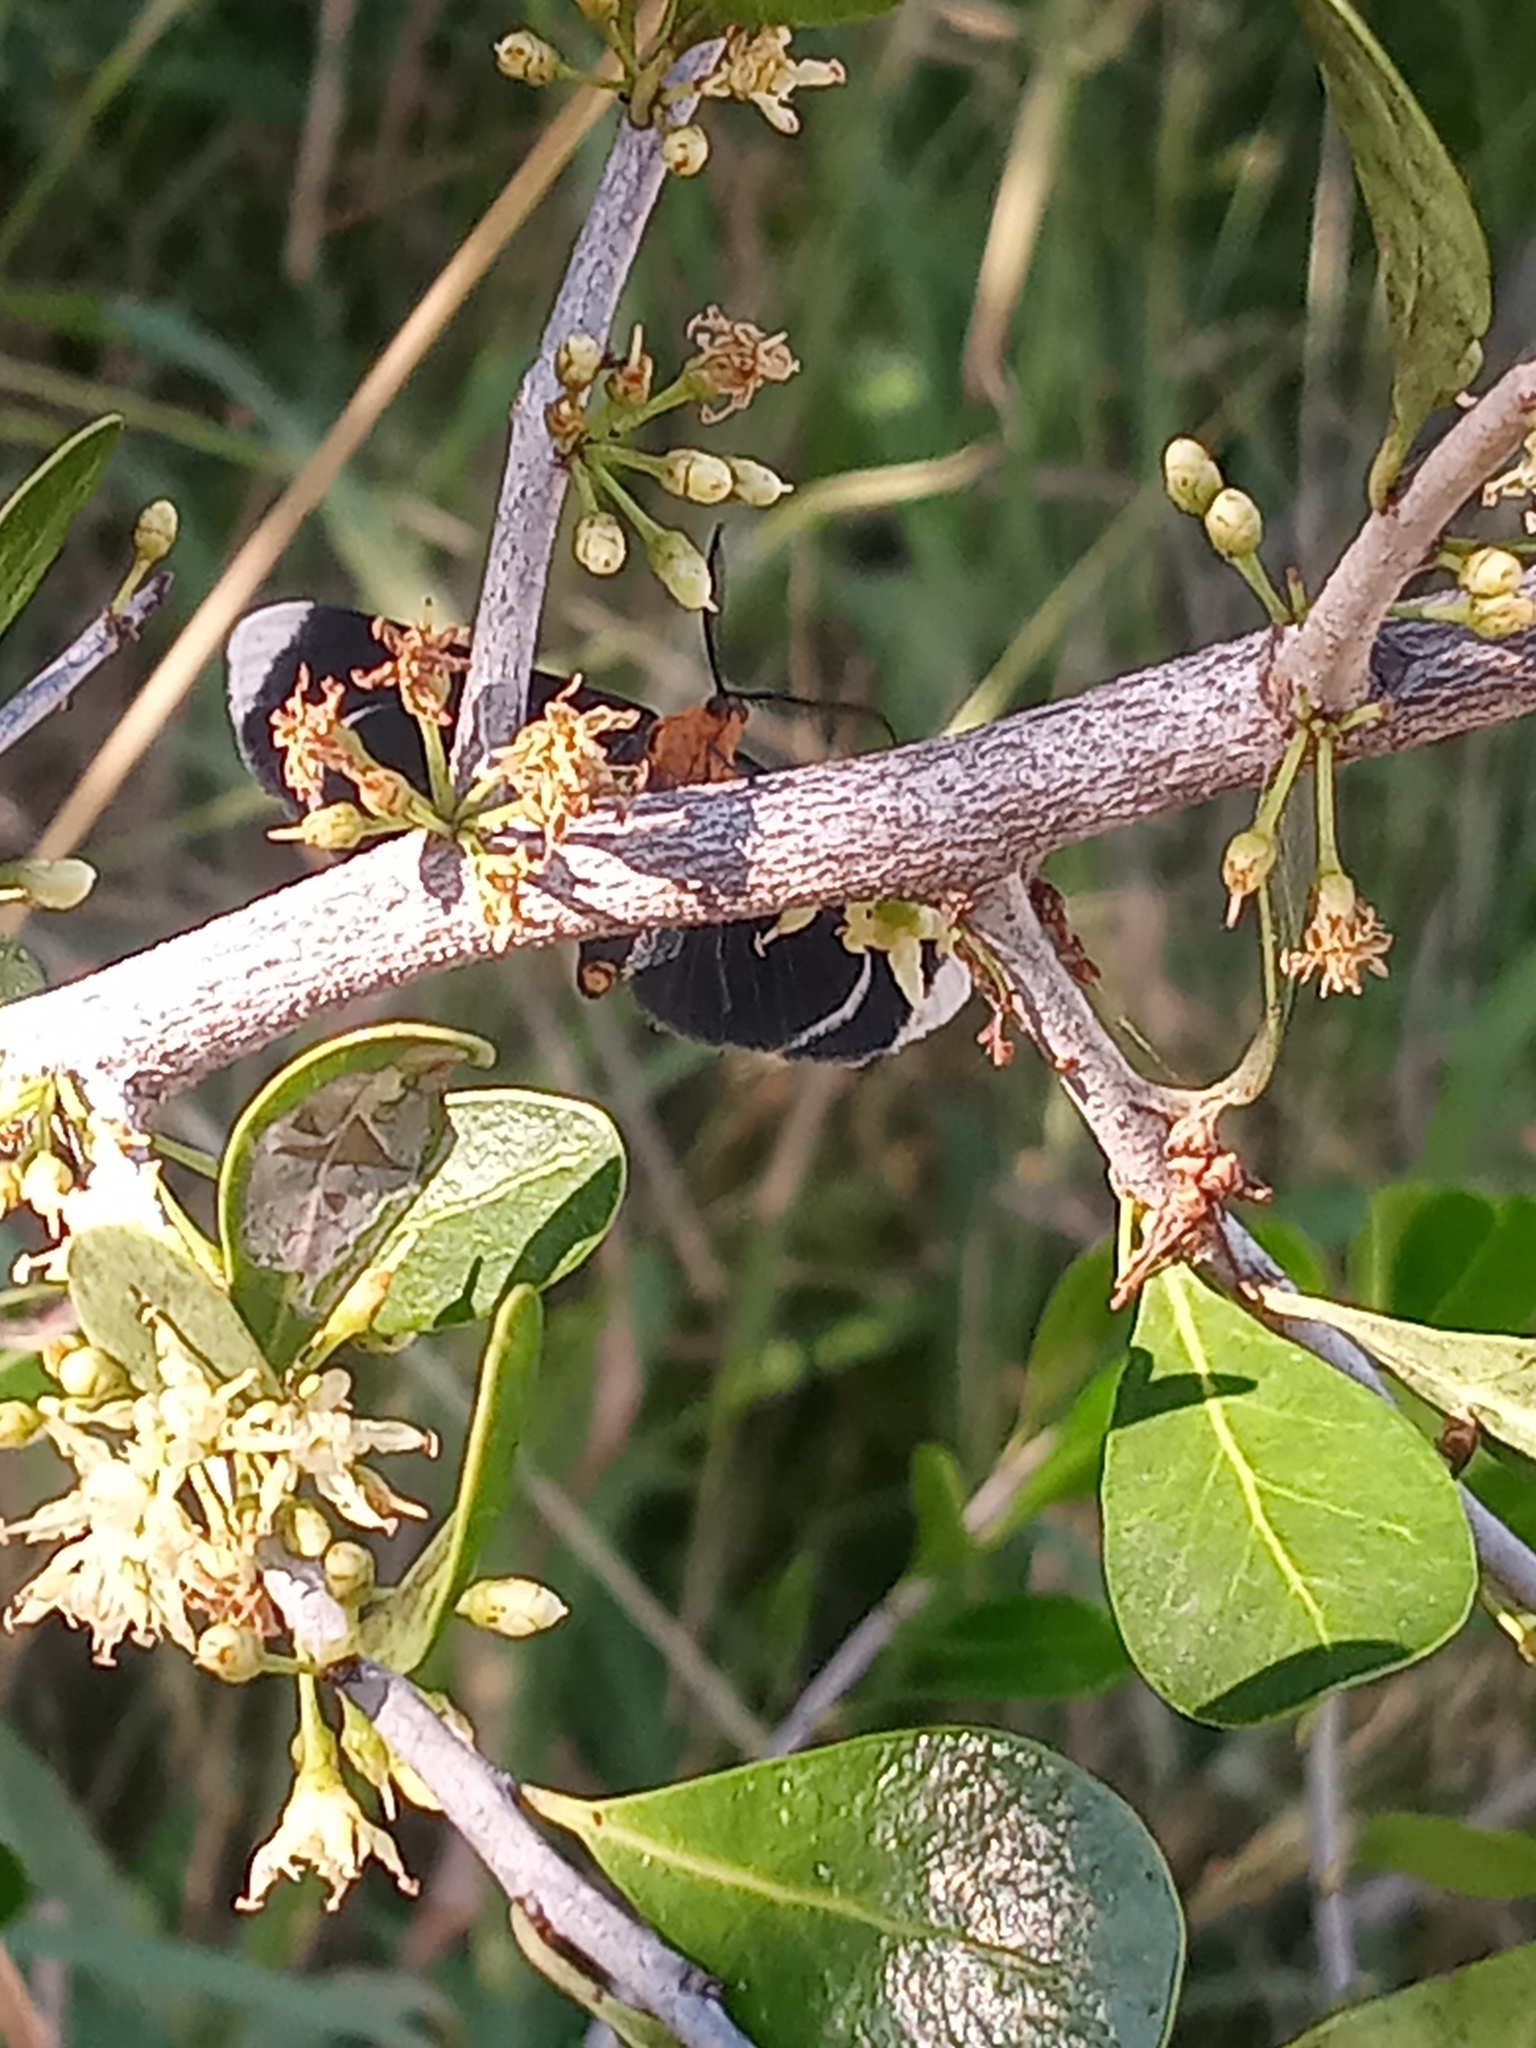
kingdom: Animalia
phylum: Arthropoda
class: Insecta
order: Lepidoptera
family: Geometridae
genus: Melanchroia
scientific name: Melanchroia chephise
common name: White-tipped black
